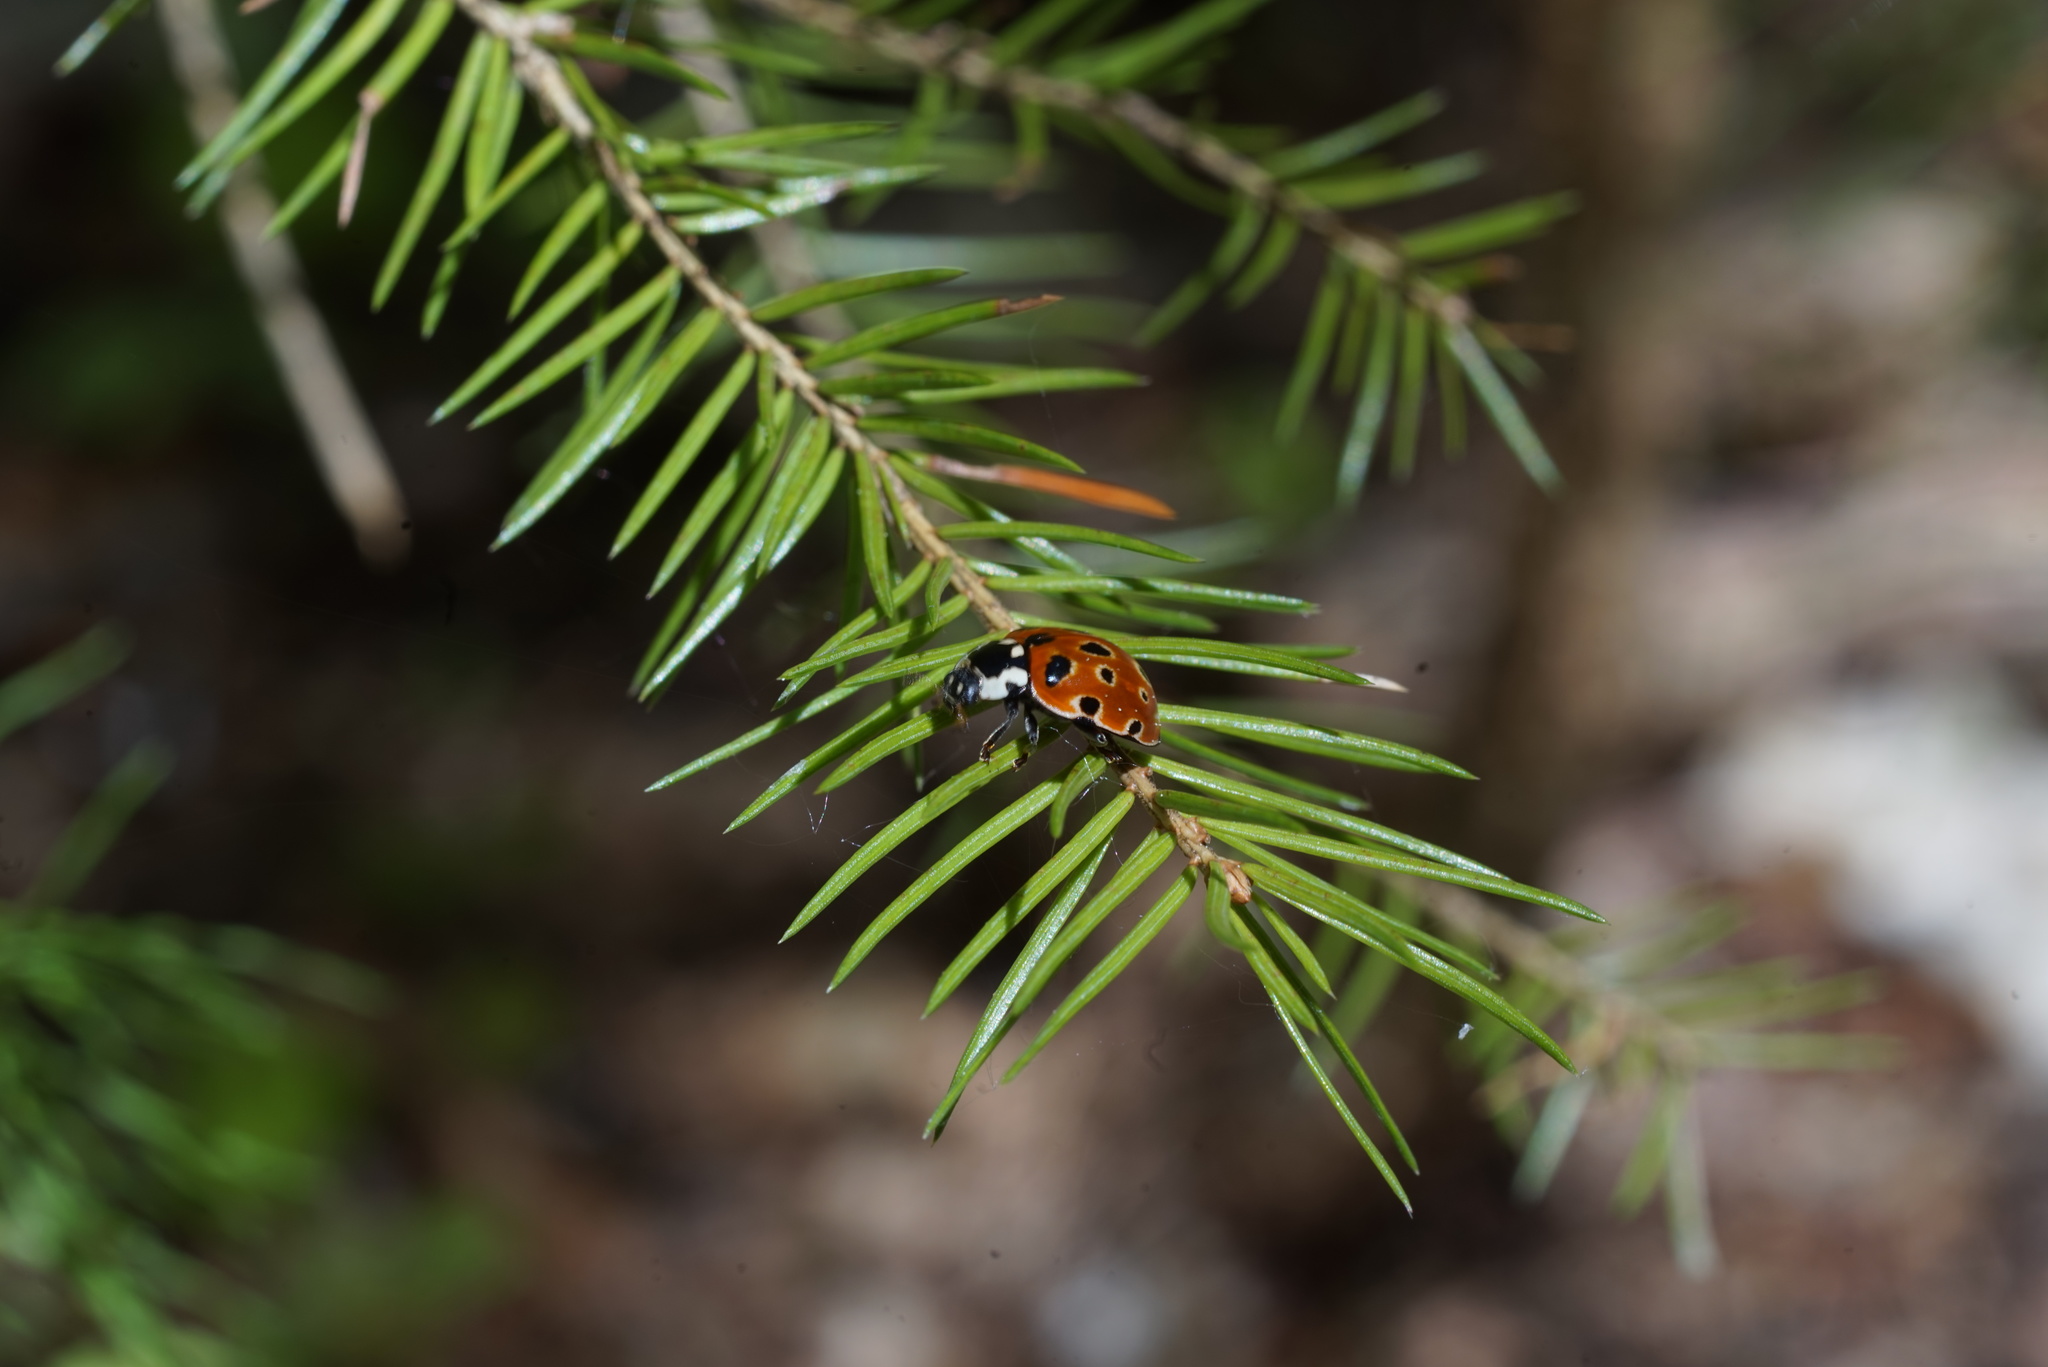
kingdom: Animalia
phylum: Arthropoda
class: Insecta
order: Coleoptera
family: Coccinellidae
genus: Anatis
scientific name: Anatis ocellata
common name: Eyed ladybird
